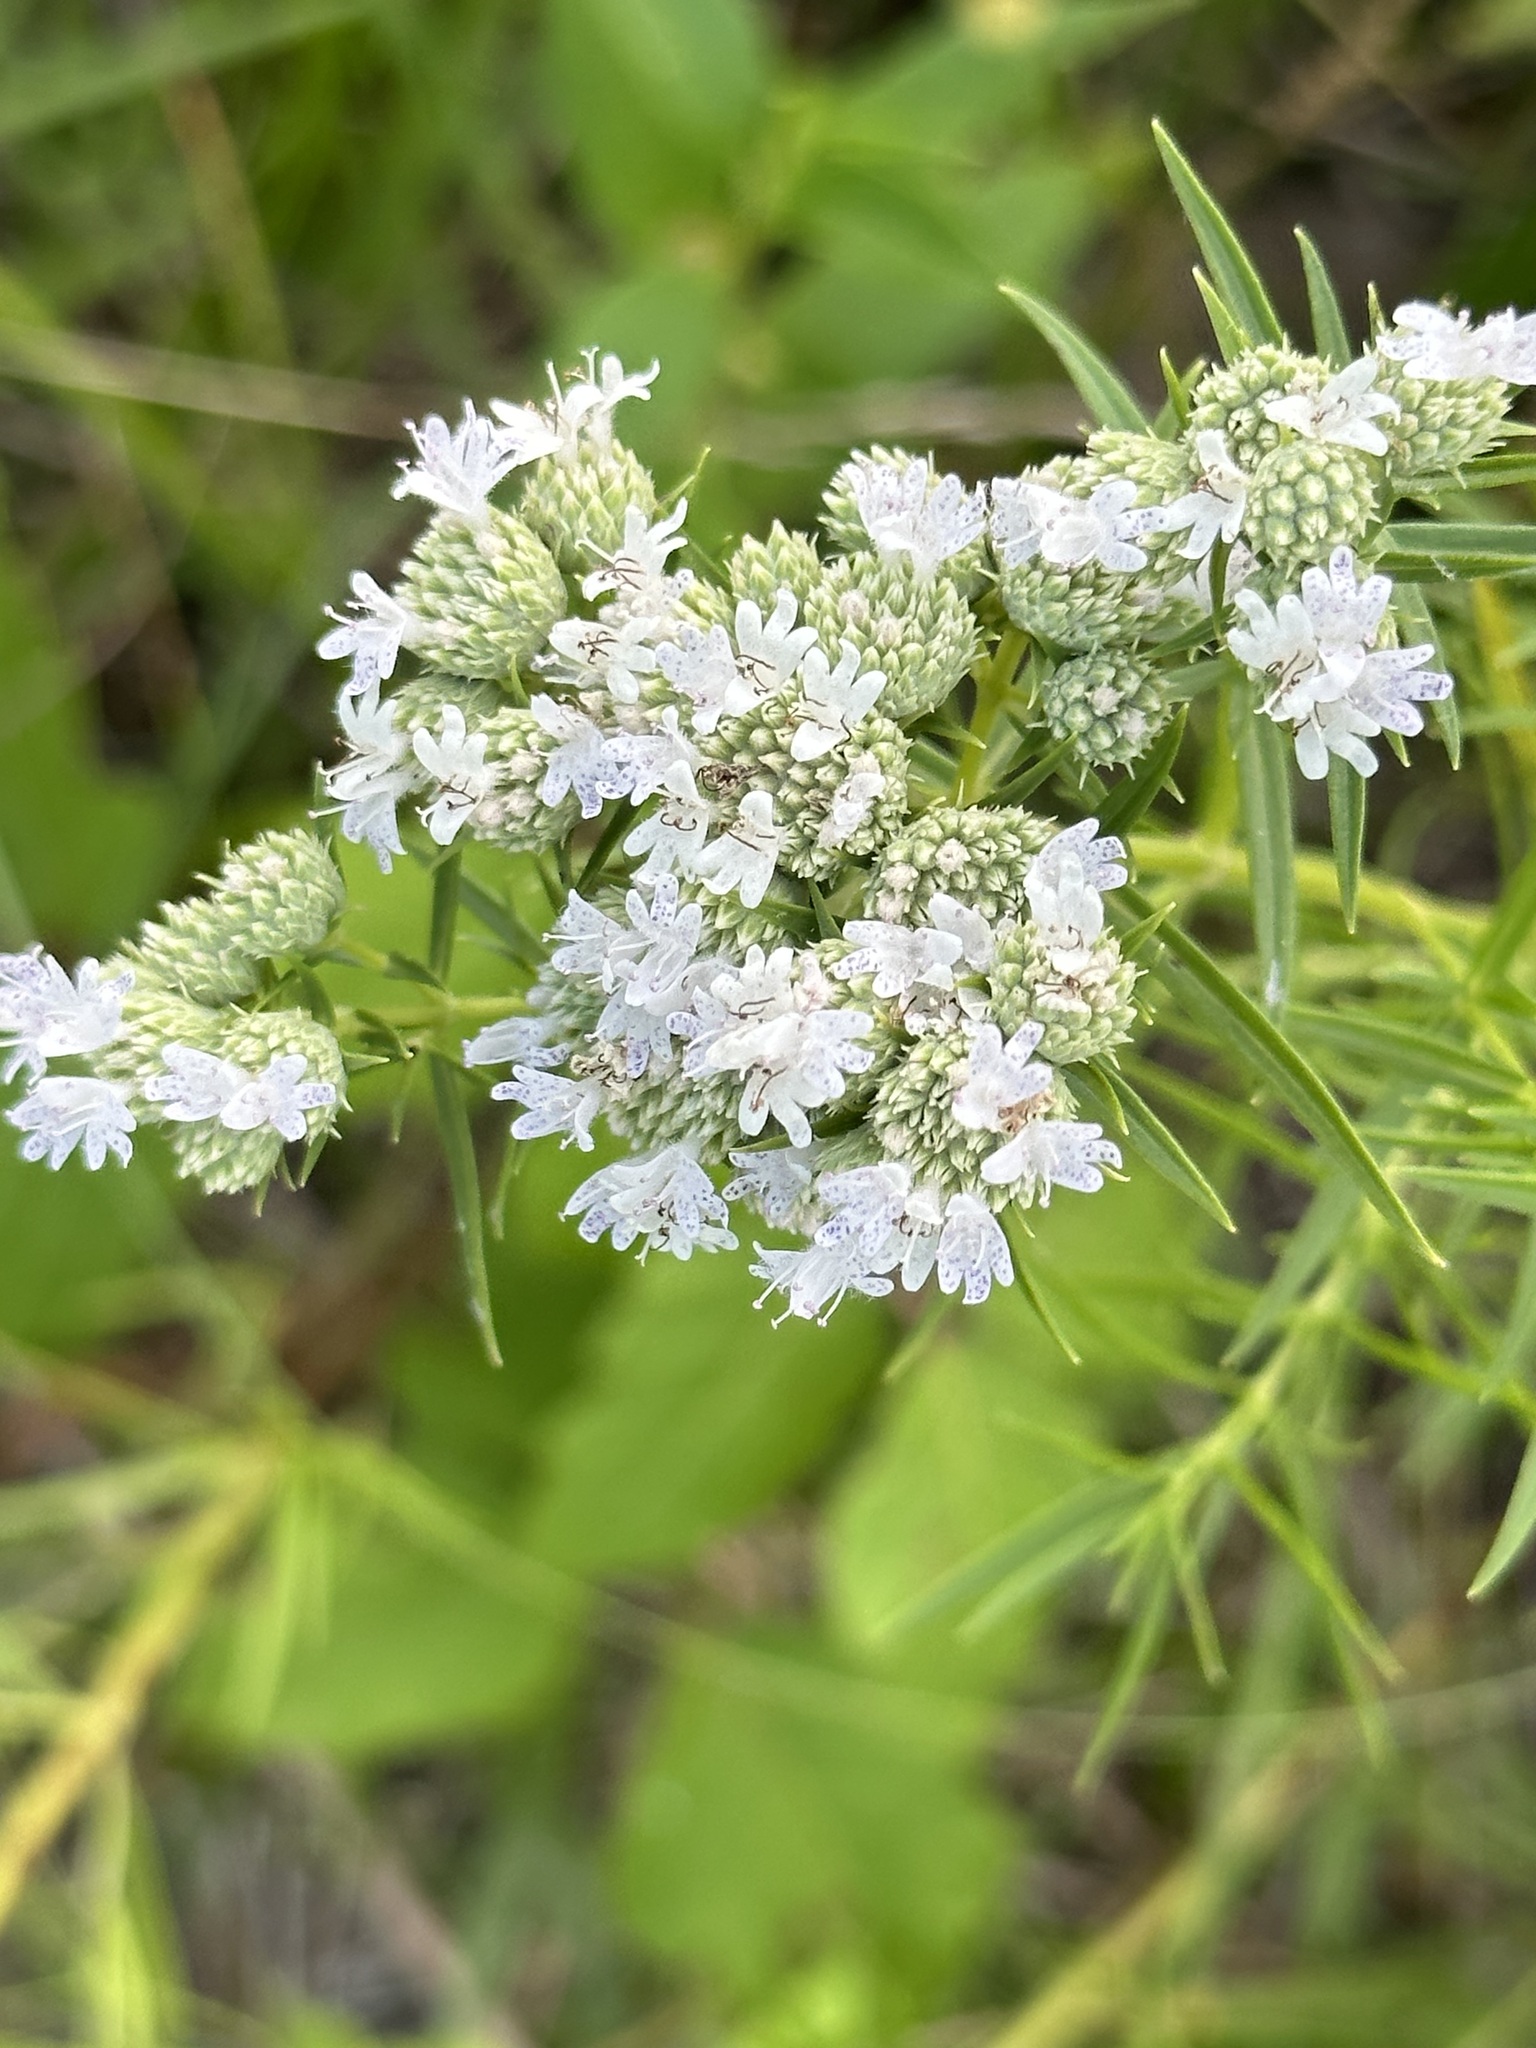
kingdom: Plantae
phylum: Tracheophyta
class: Magnoliopsida
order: Lamiales
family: Lamiaceae
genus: Pycnanthemum
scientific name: Pycnanthemum tenuifolium
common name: Narrow-leaf mountain-mint
